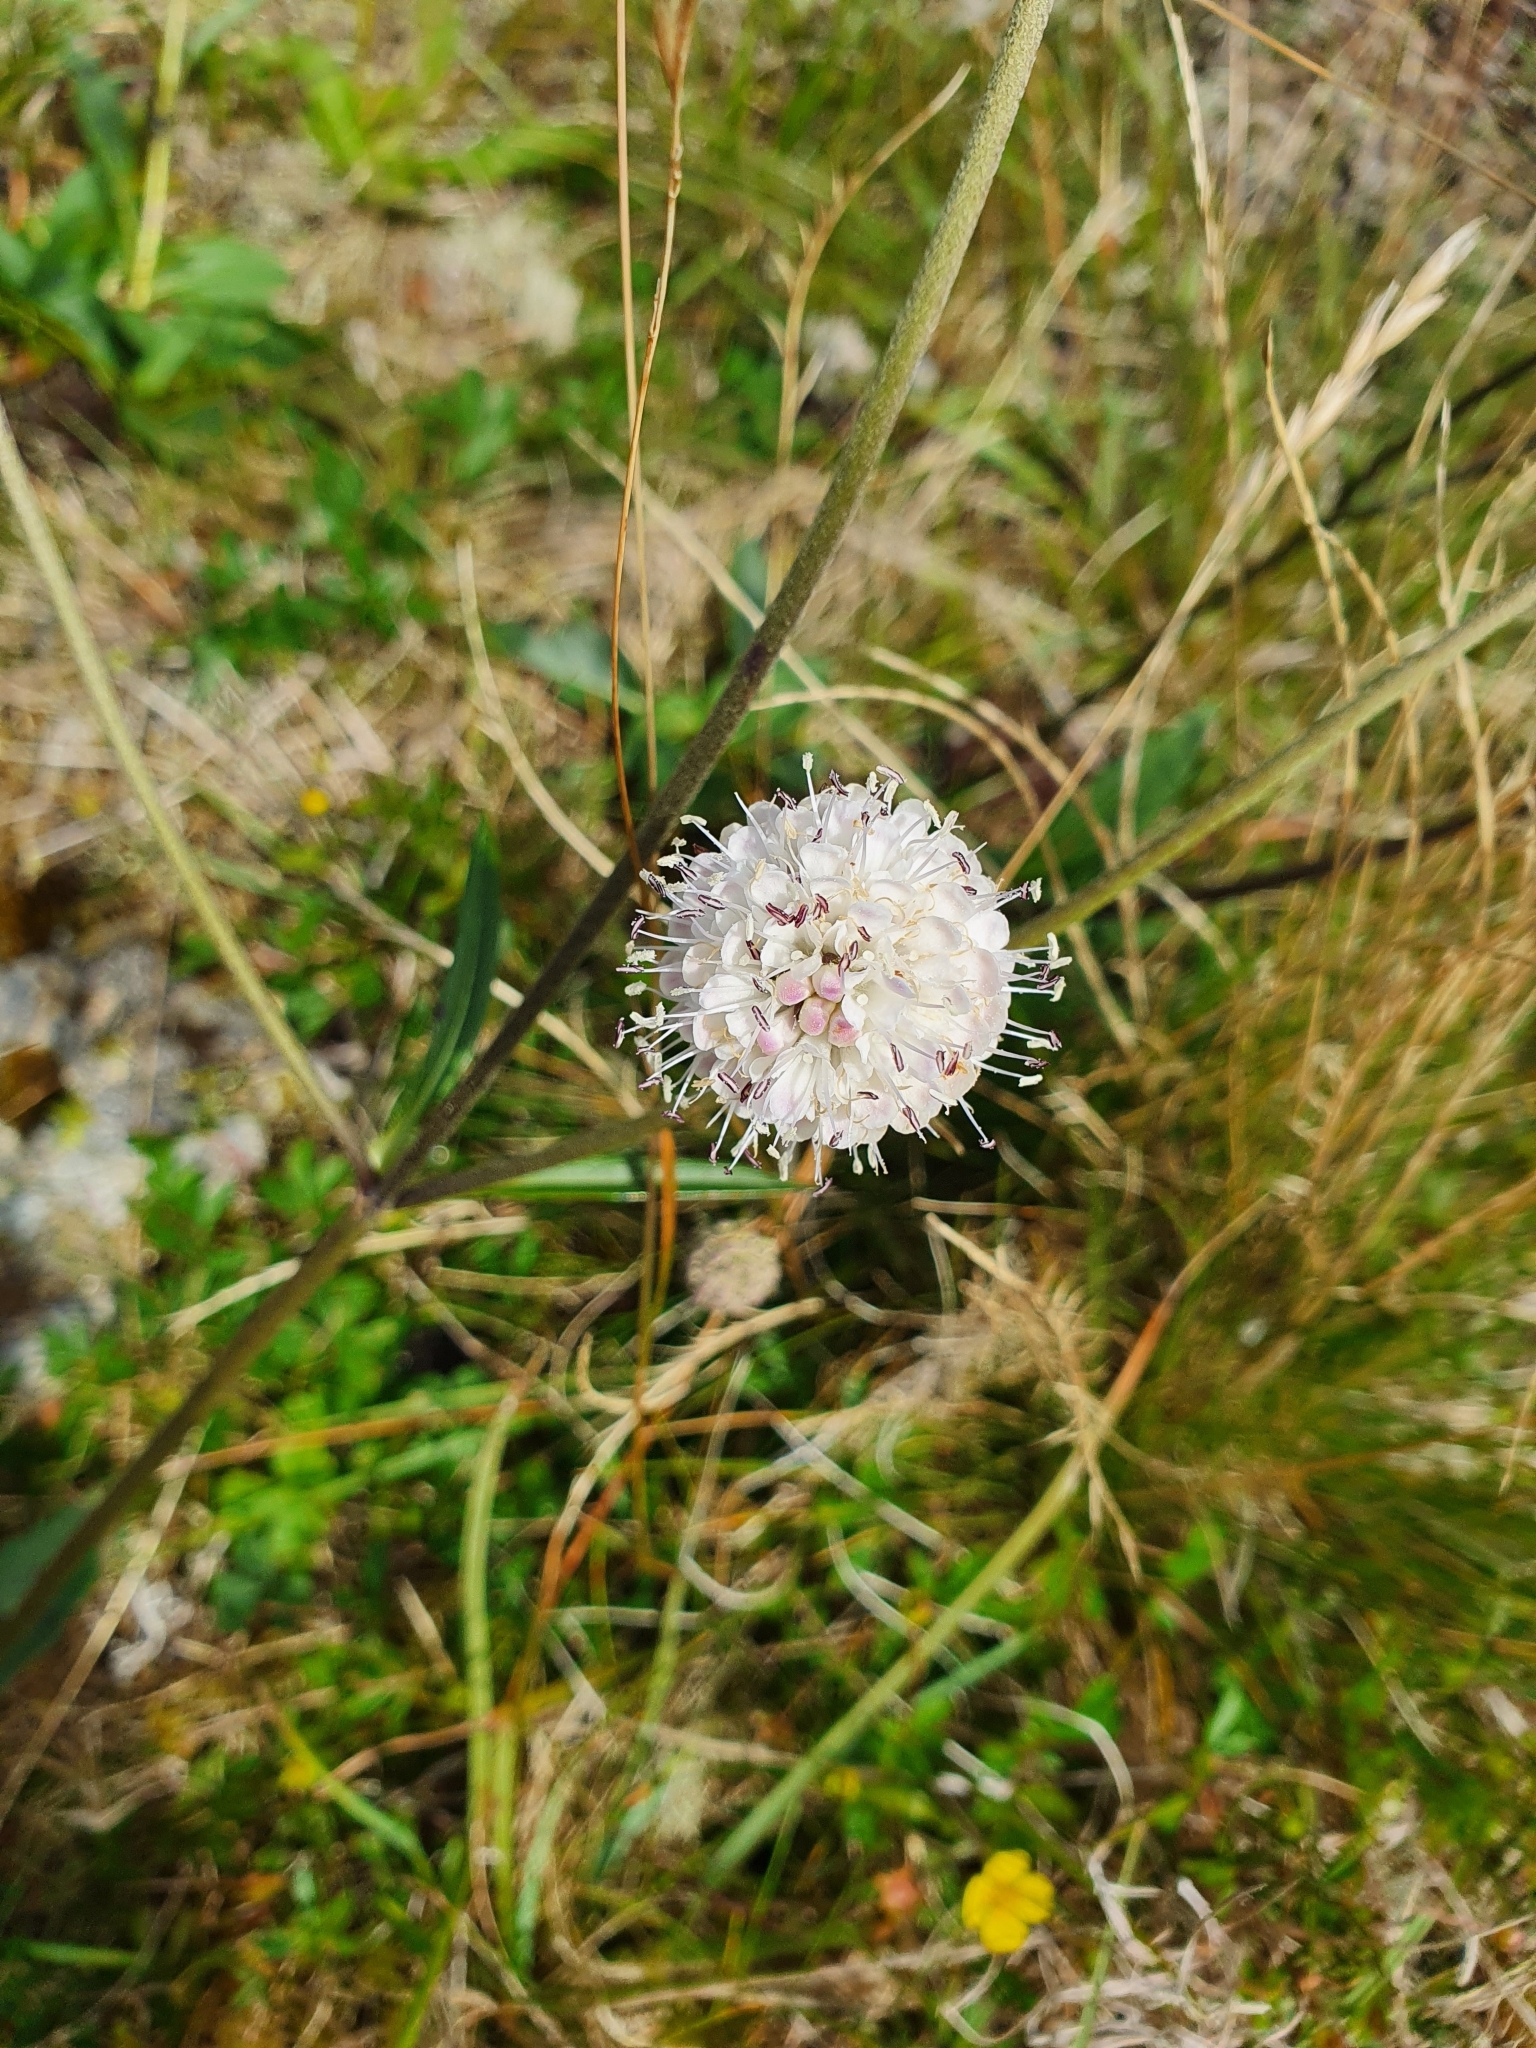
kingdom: Plantae
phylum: Tracheophyta
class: Magnoliopsida
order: Dipsacales
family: Caprifoliaceae
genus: Succisa
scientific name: Succisa pratensis
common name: Devil's-bit
